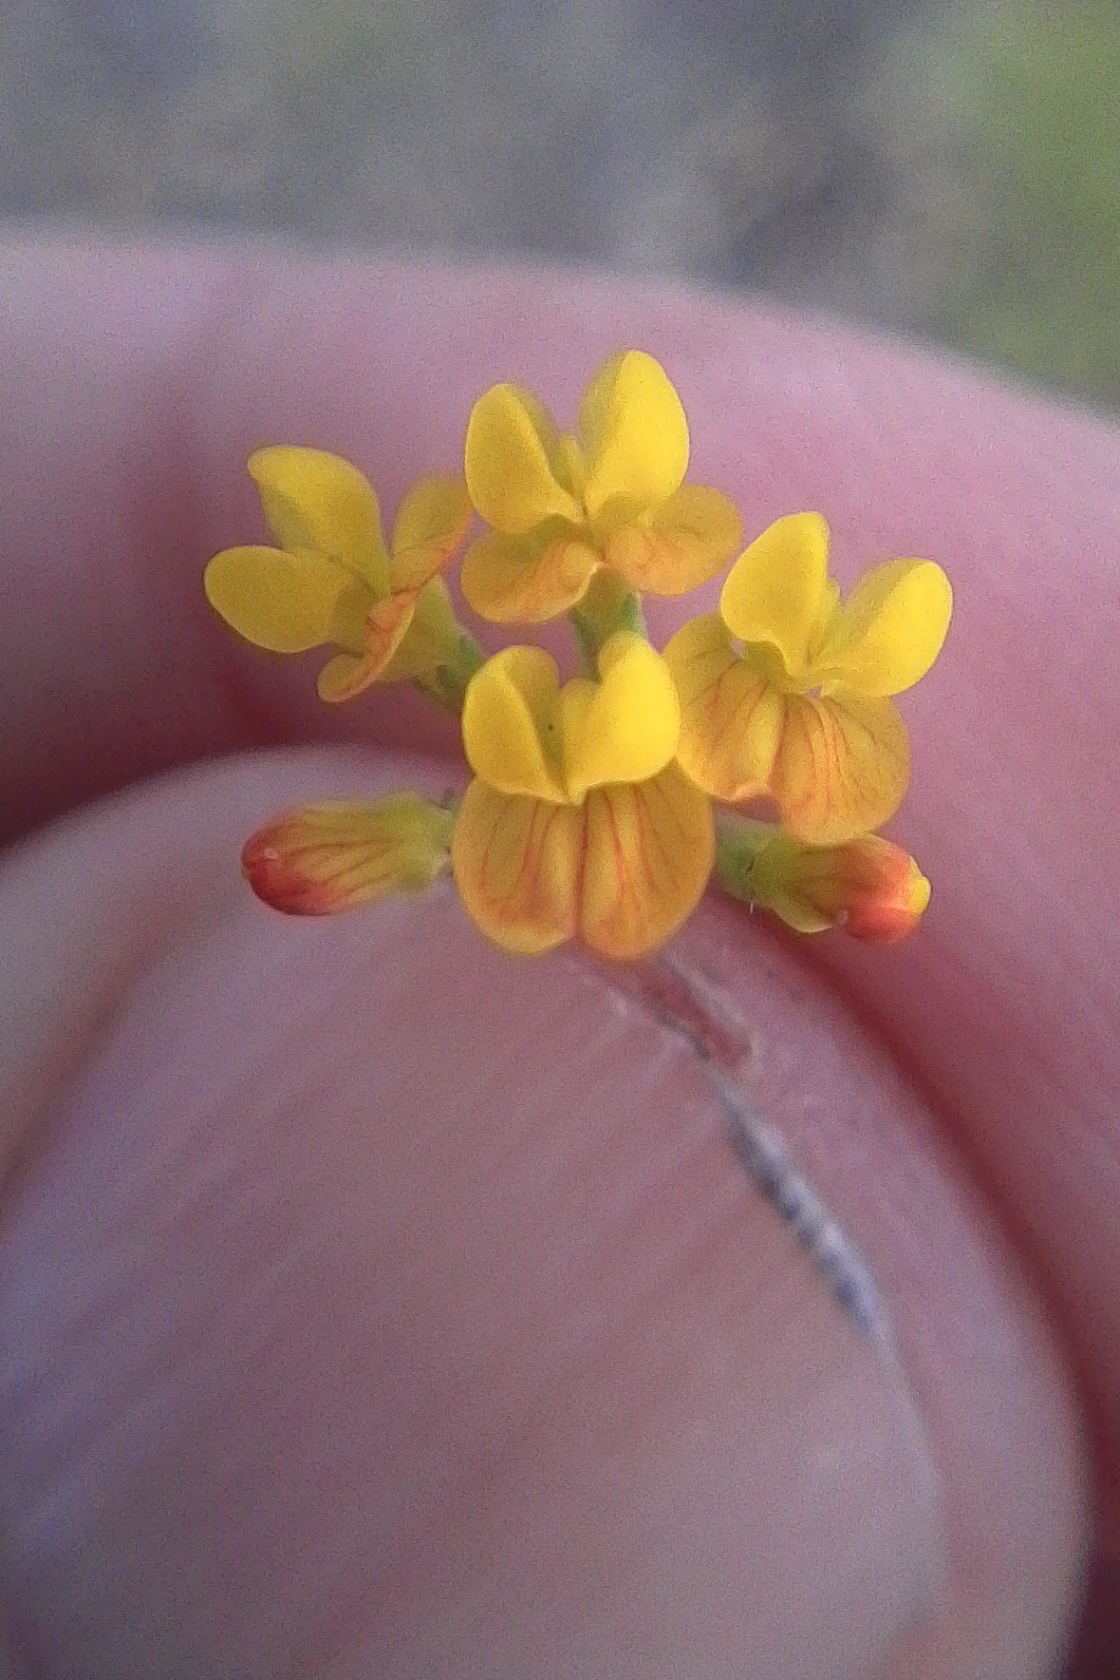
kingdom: Plantae
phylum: Tracheophyta
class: Magnoliopsida
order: Fabales
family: Fabaceae
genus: Ornithopus
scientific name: Ornithopus pinnatus
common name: Orange bird's-foot
